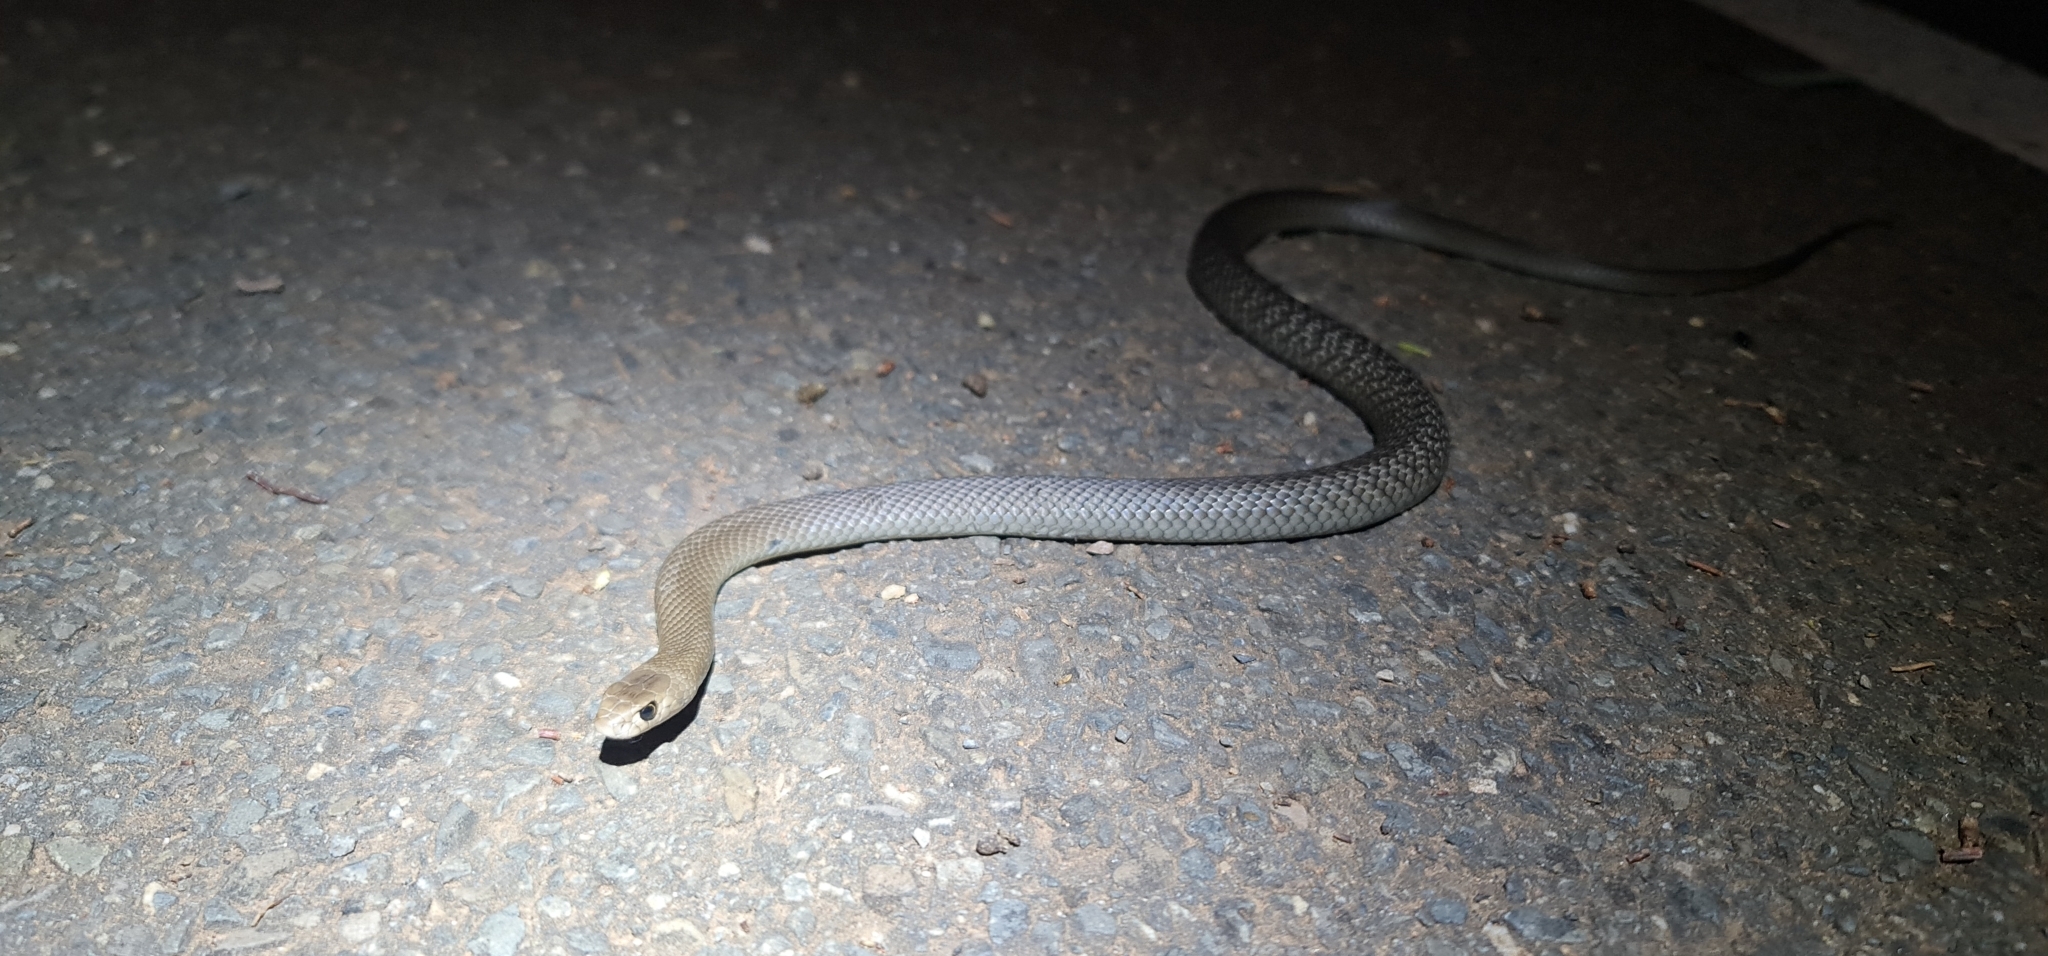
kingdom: Animalia
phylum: Chordata
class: Squamata
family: Elapidae
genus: Pseudonaja
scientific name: Pseudonaja textilis
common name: Eastern brown snake
